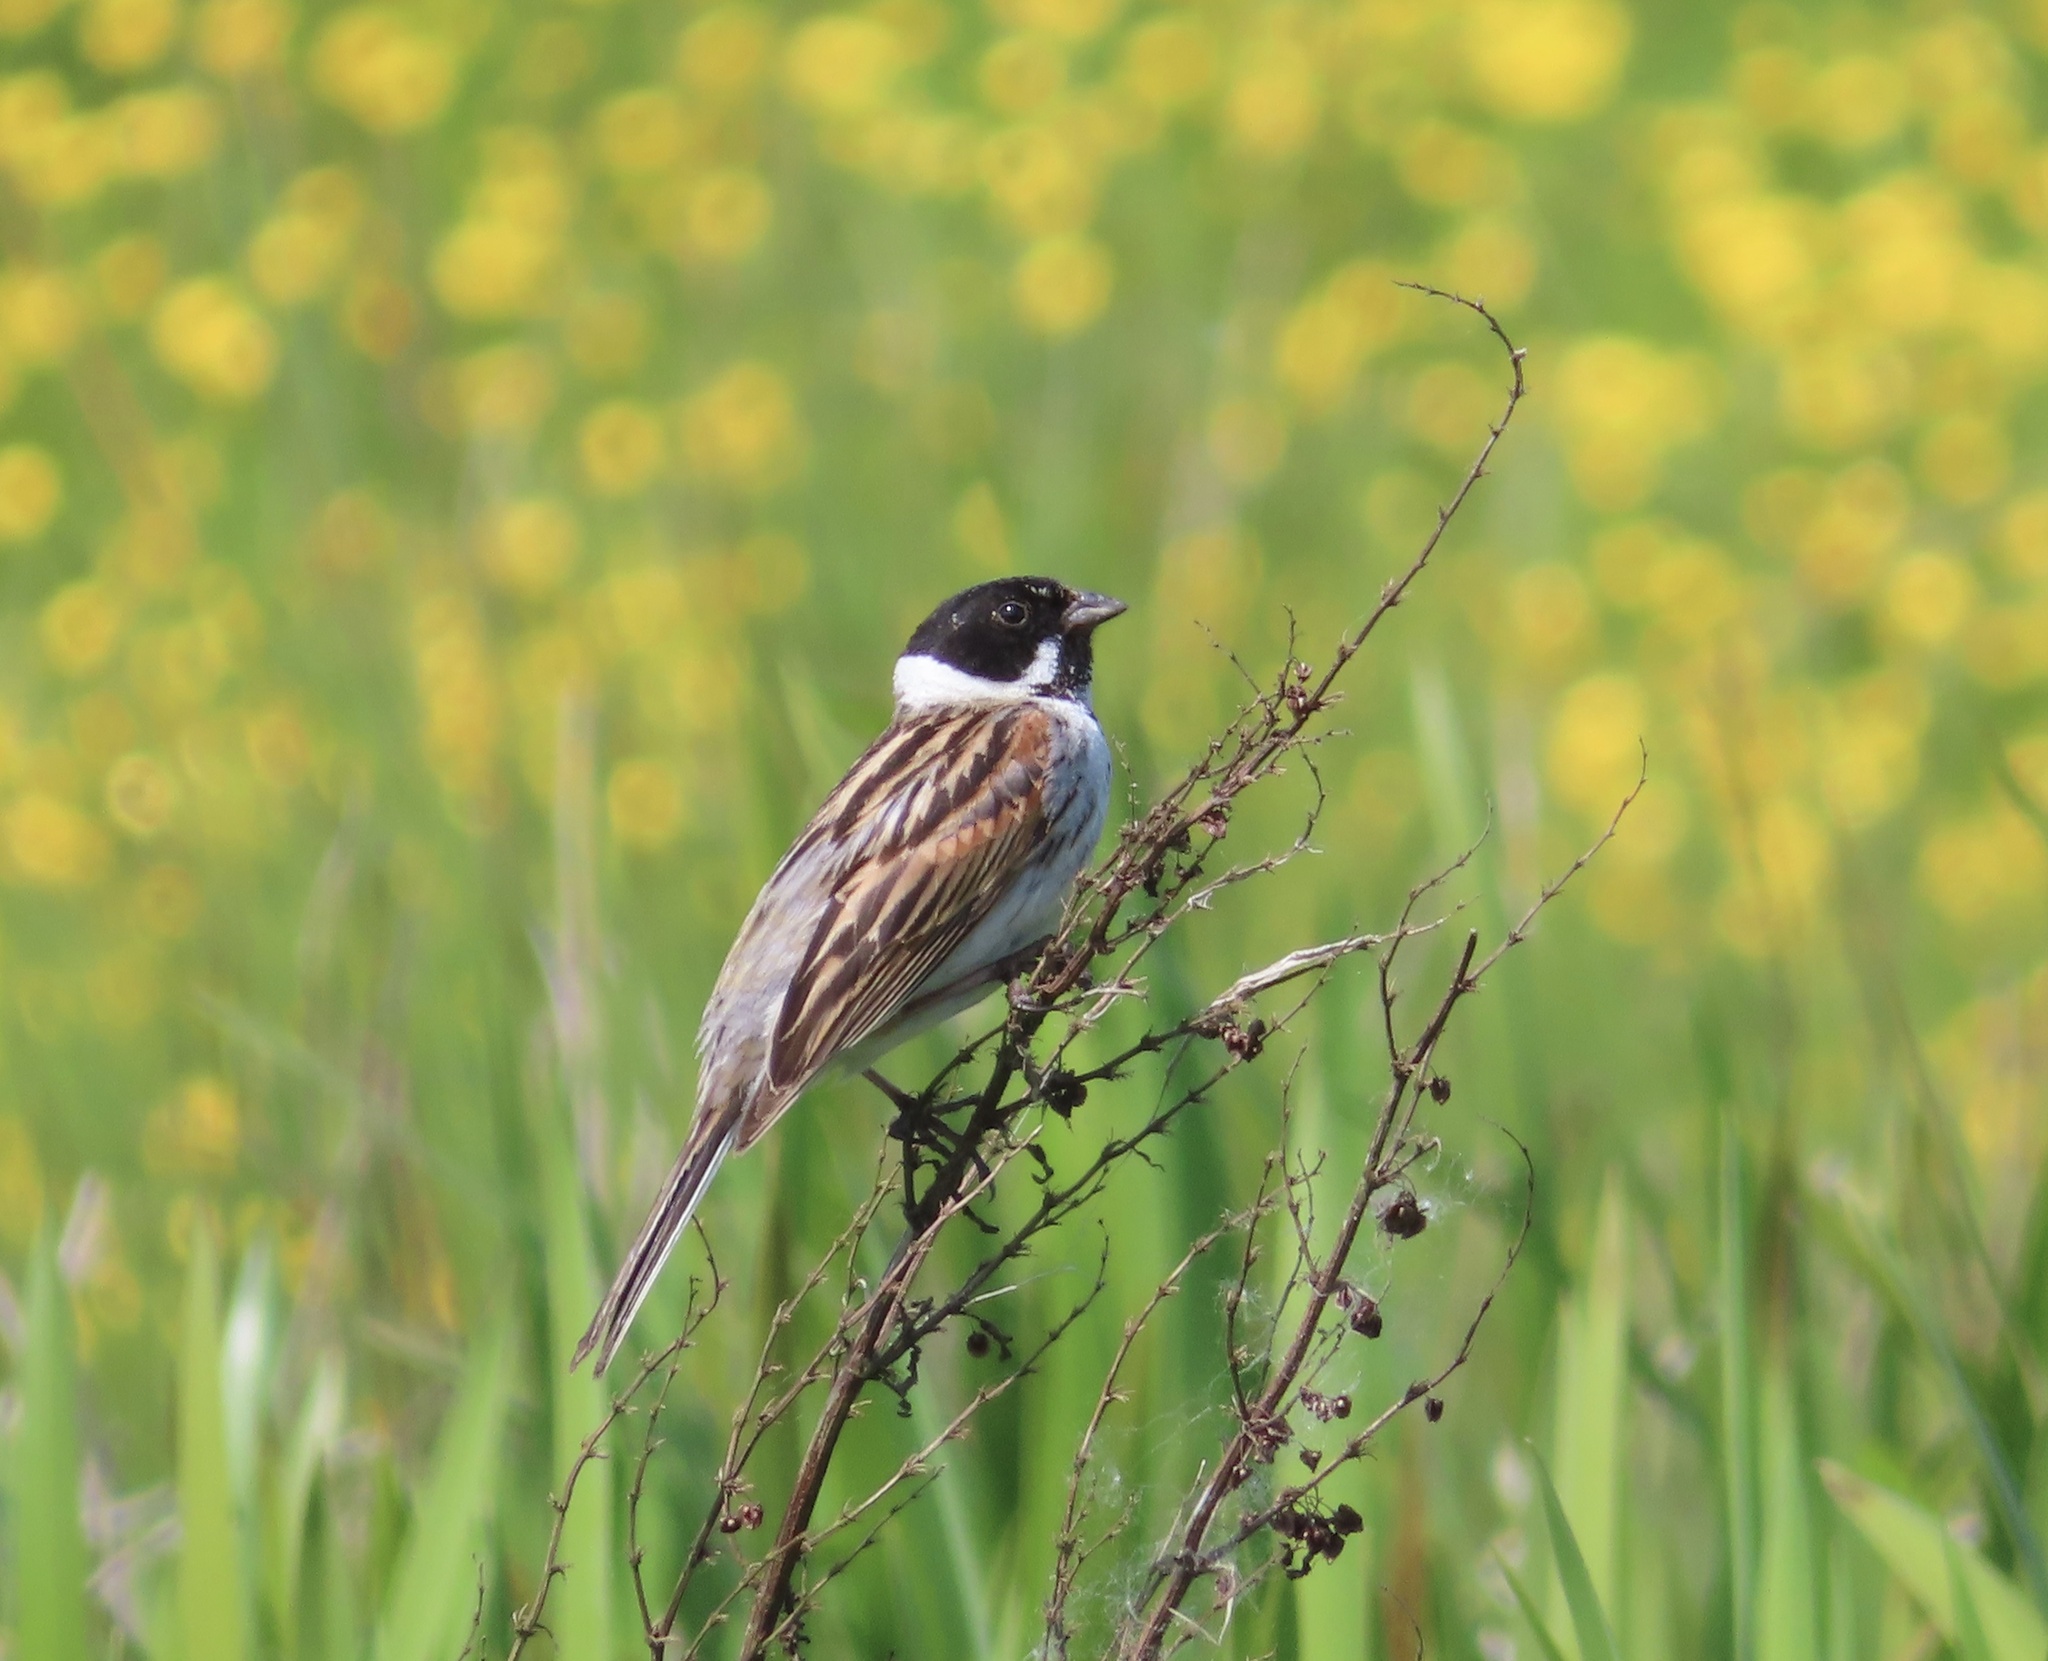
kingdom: Animalia
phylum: Chordata
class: Aves
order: Passeriformes
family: Emberizidae
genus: Emberiza
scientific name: Emberiza schoeniclus
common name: Reed bunting
